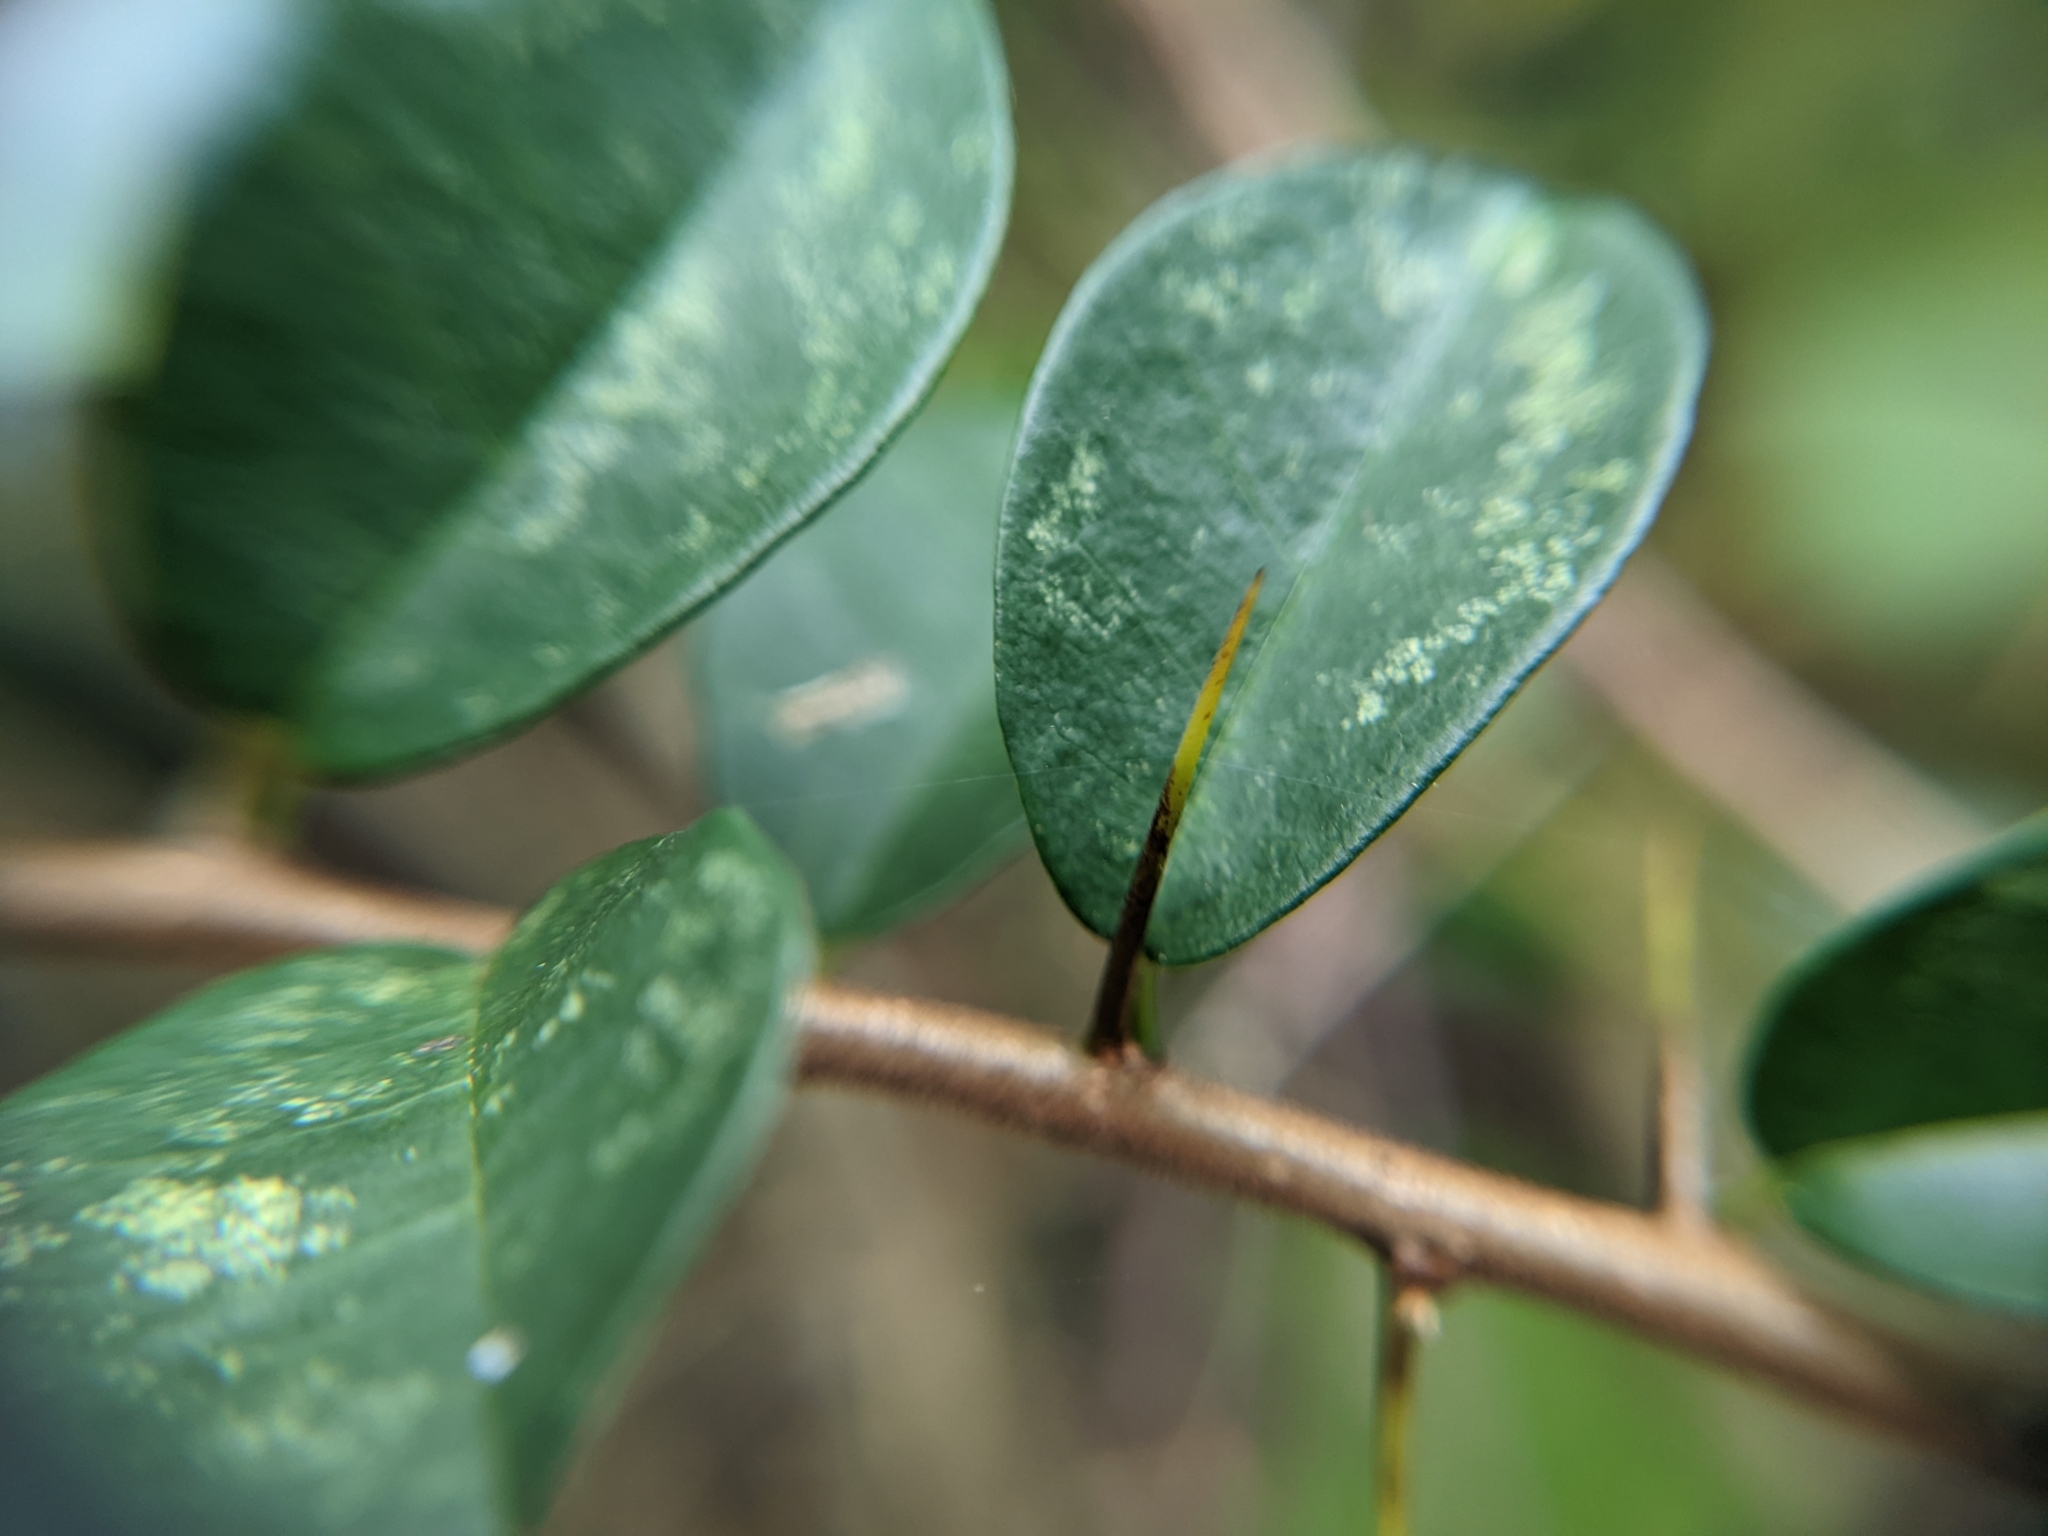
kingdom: Plantae
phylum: Tracheophyta
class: Magnoliopsida
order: Rosales
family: Moraceae
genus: Maclura
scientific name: Maclura cochinchinensis
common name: Cockspurthorn
